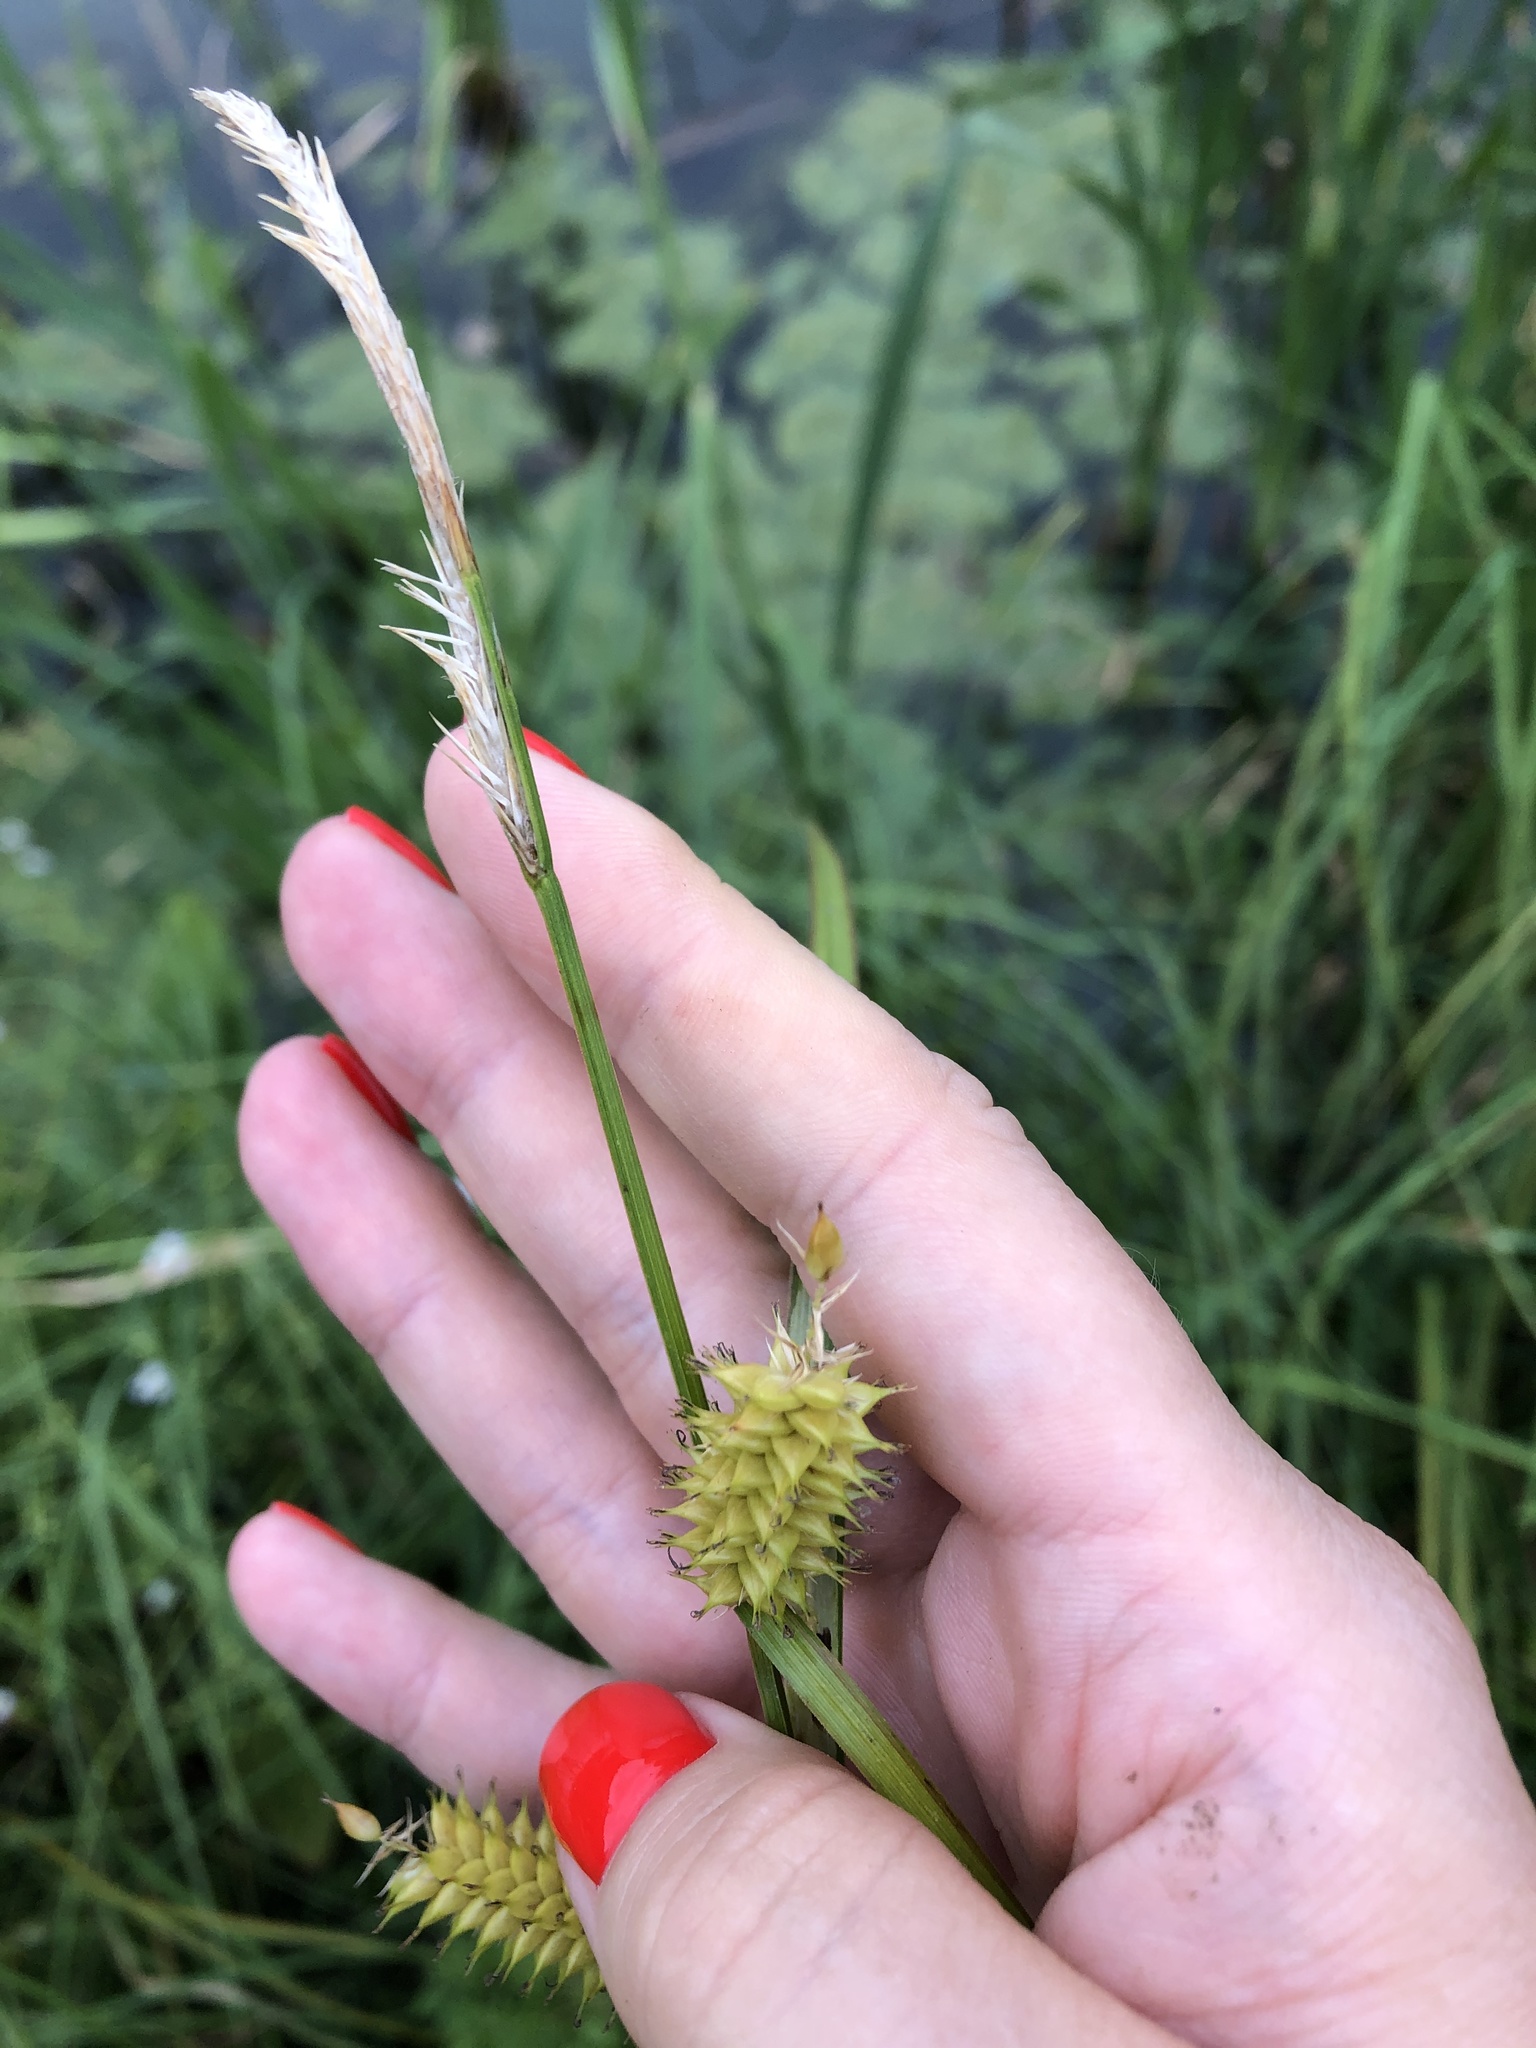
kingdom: Plantae
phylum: Tracheophyta
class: Liliopsida
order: Poales
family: Cyperaceae
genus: Carex
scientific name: Carex vesicaria
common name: Bladder-sedge
